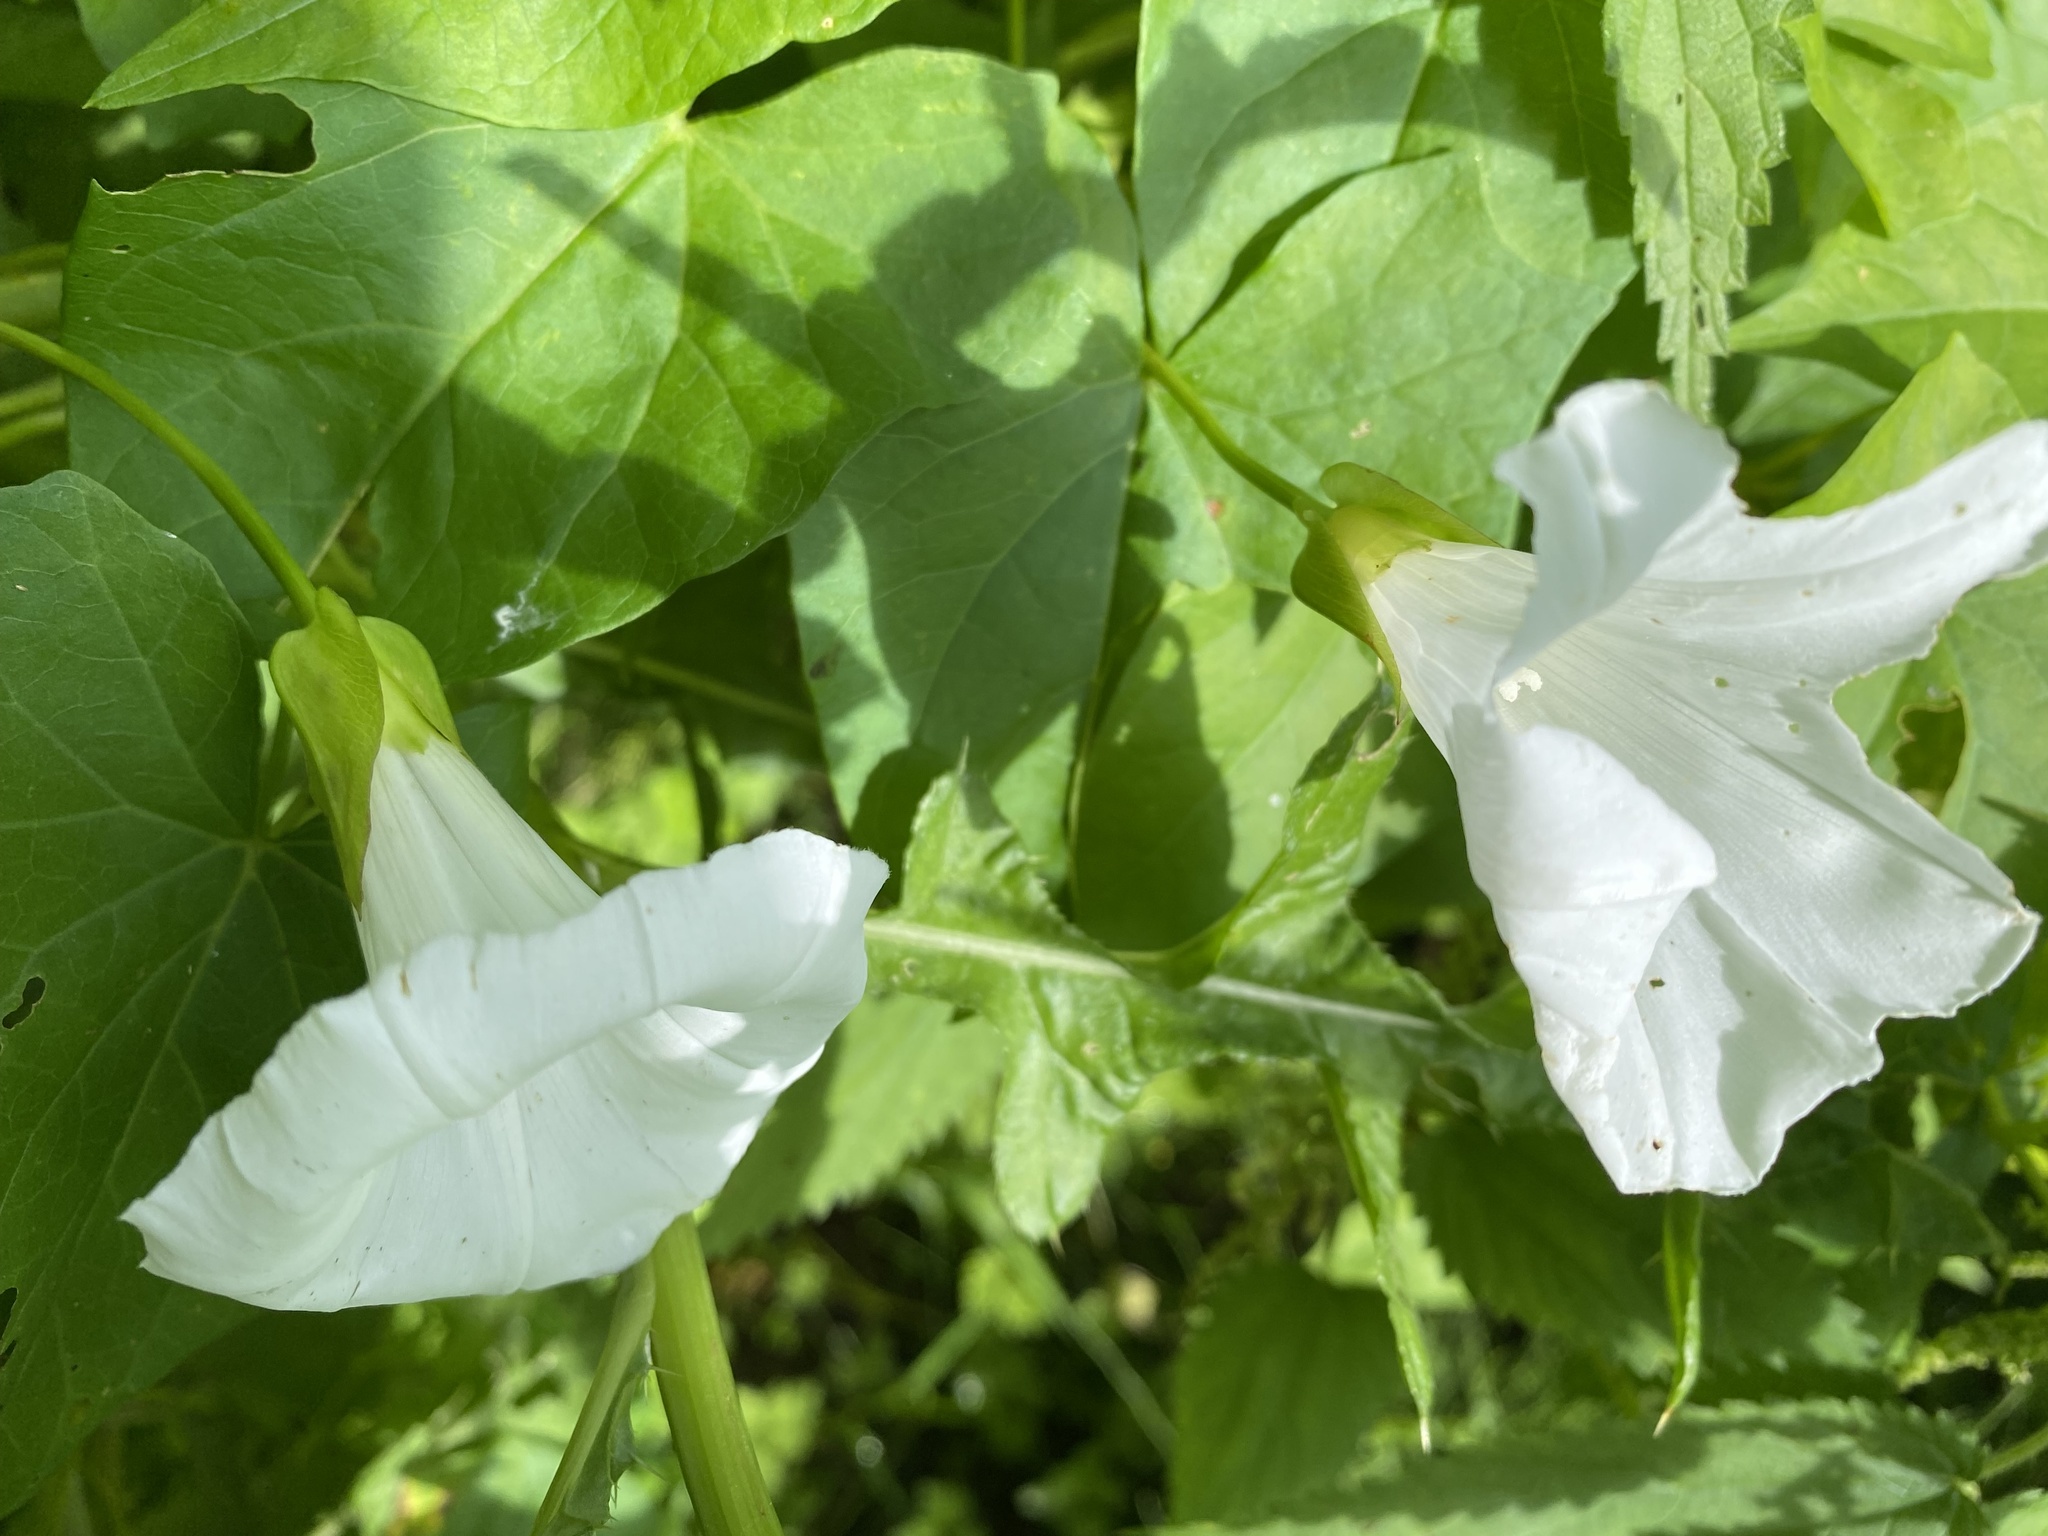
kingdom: Plantae
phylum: Tracheophyta
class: Magnoliopsida
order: Solanales
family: Convolvulaceae
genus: Calystegia
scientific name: Calystegia sepium
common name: Hedge bindweed
